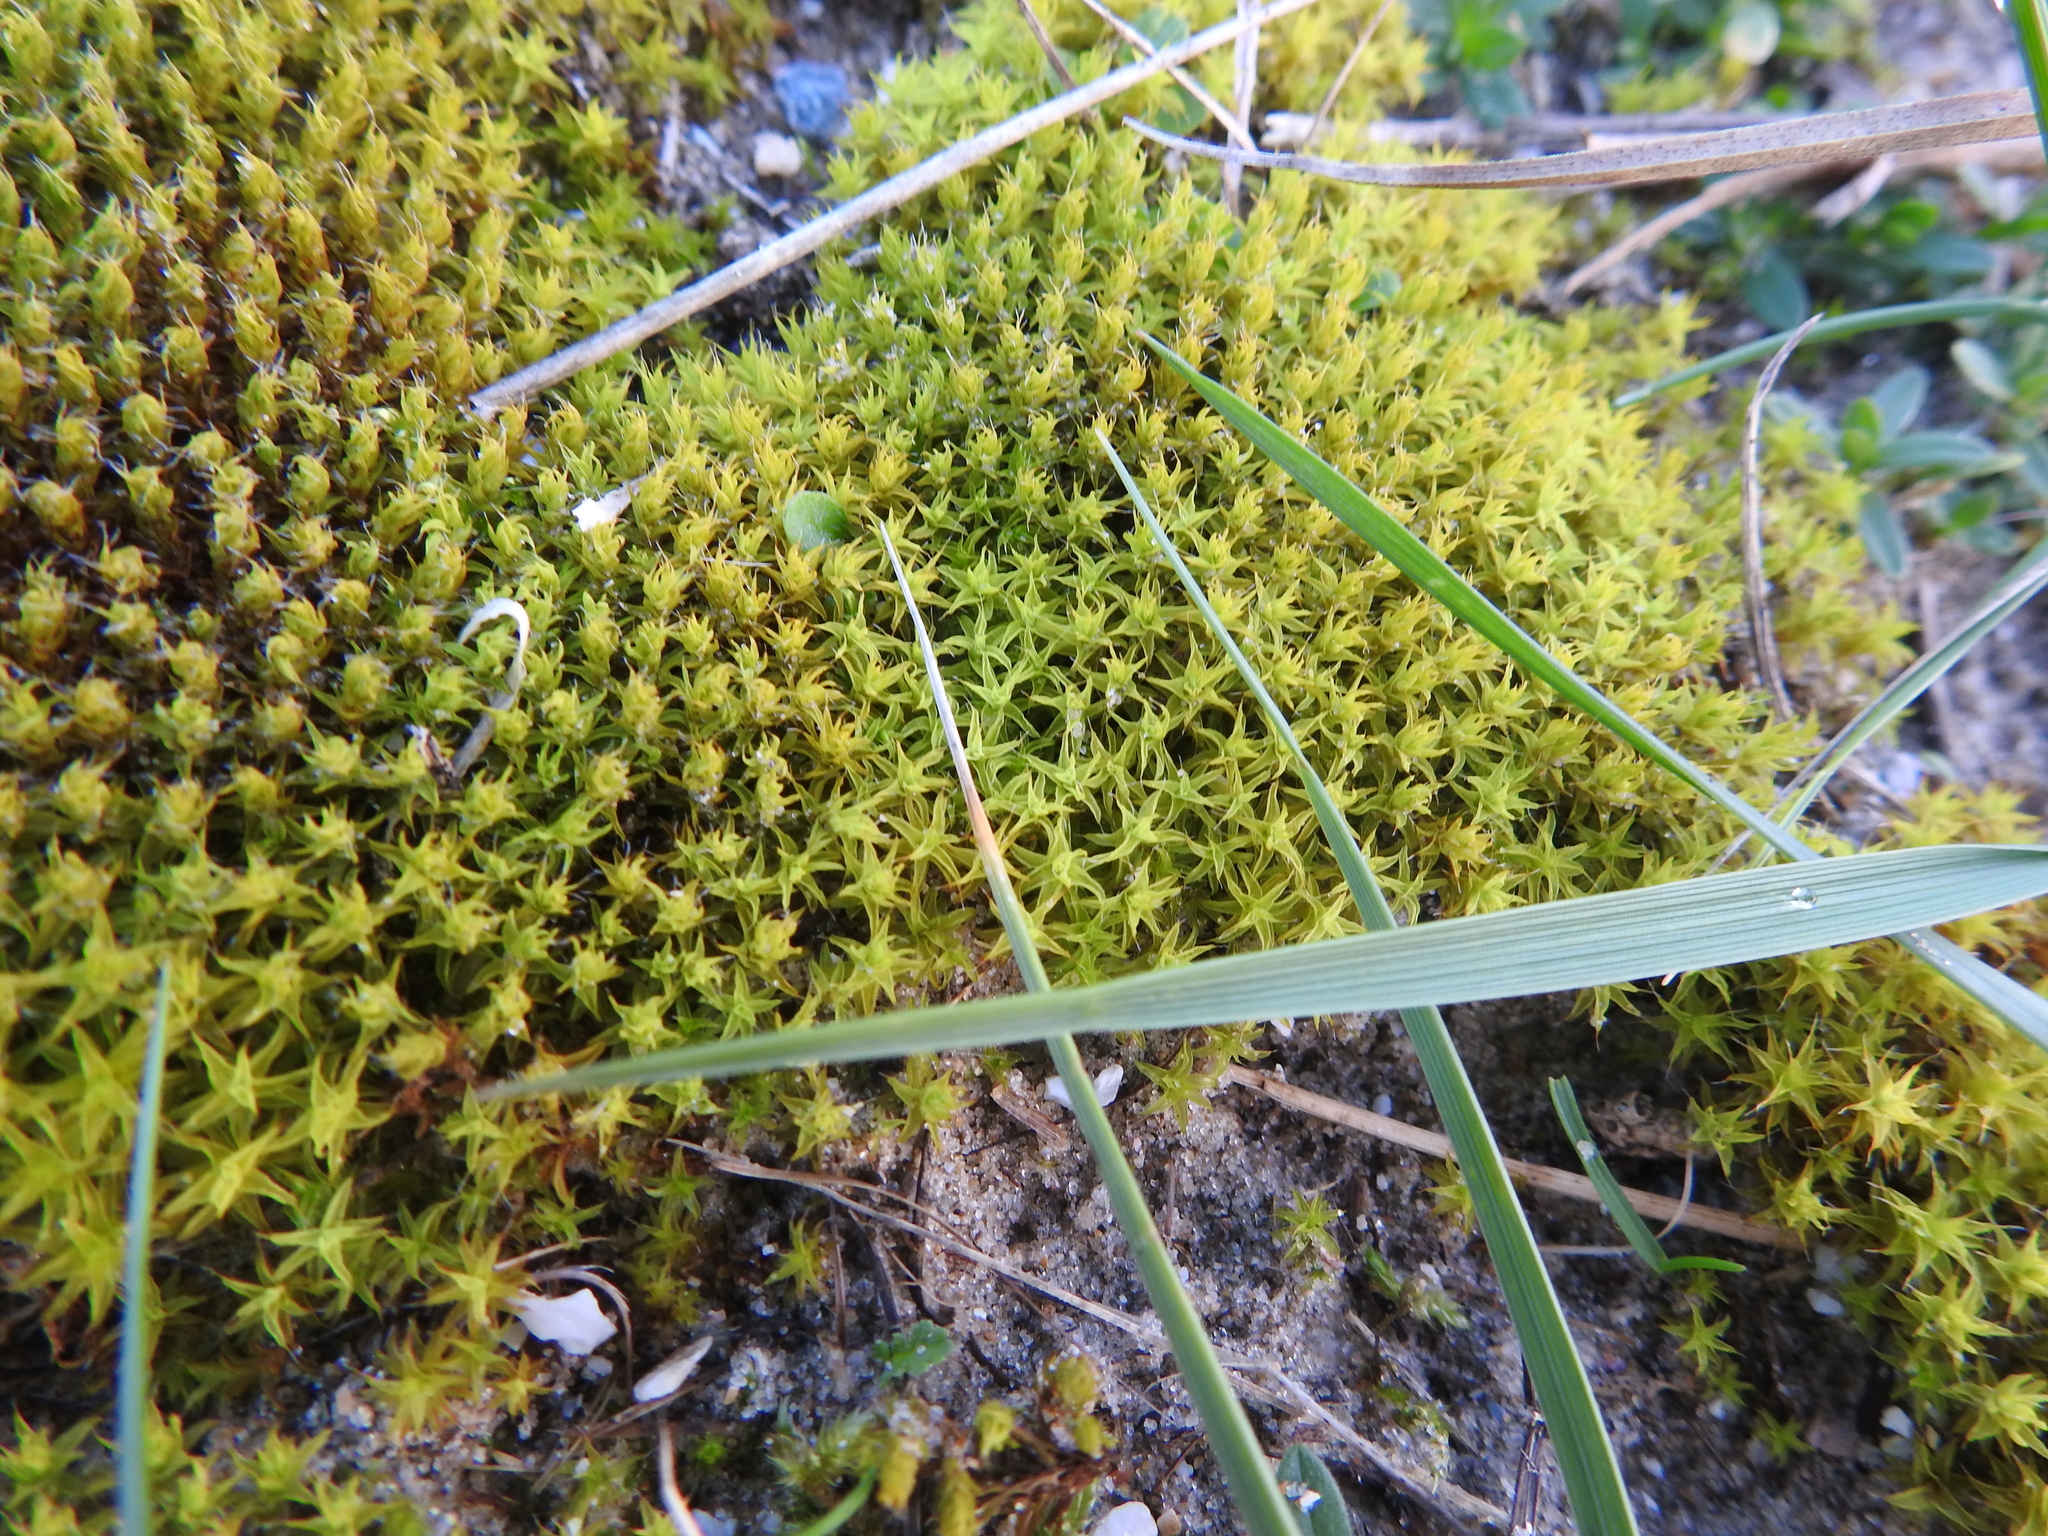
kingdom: Plantae
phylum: Bryophyta
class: Bryopsida
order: Pottiales
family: Pottiaceae
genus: Syntrichia
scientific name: Syntrichia ruralis
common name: Sidewalk screw moss
